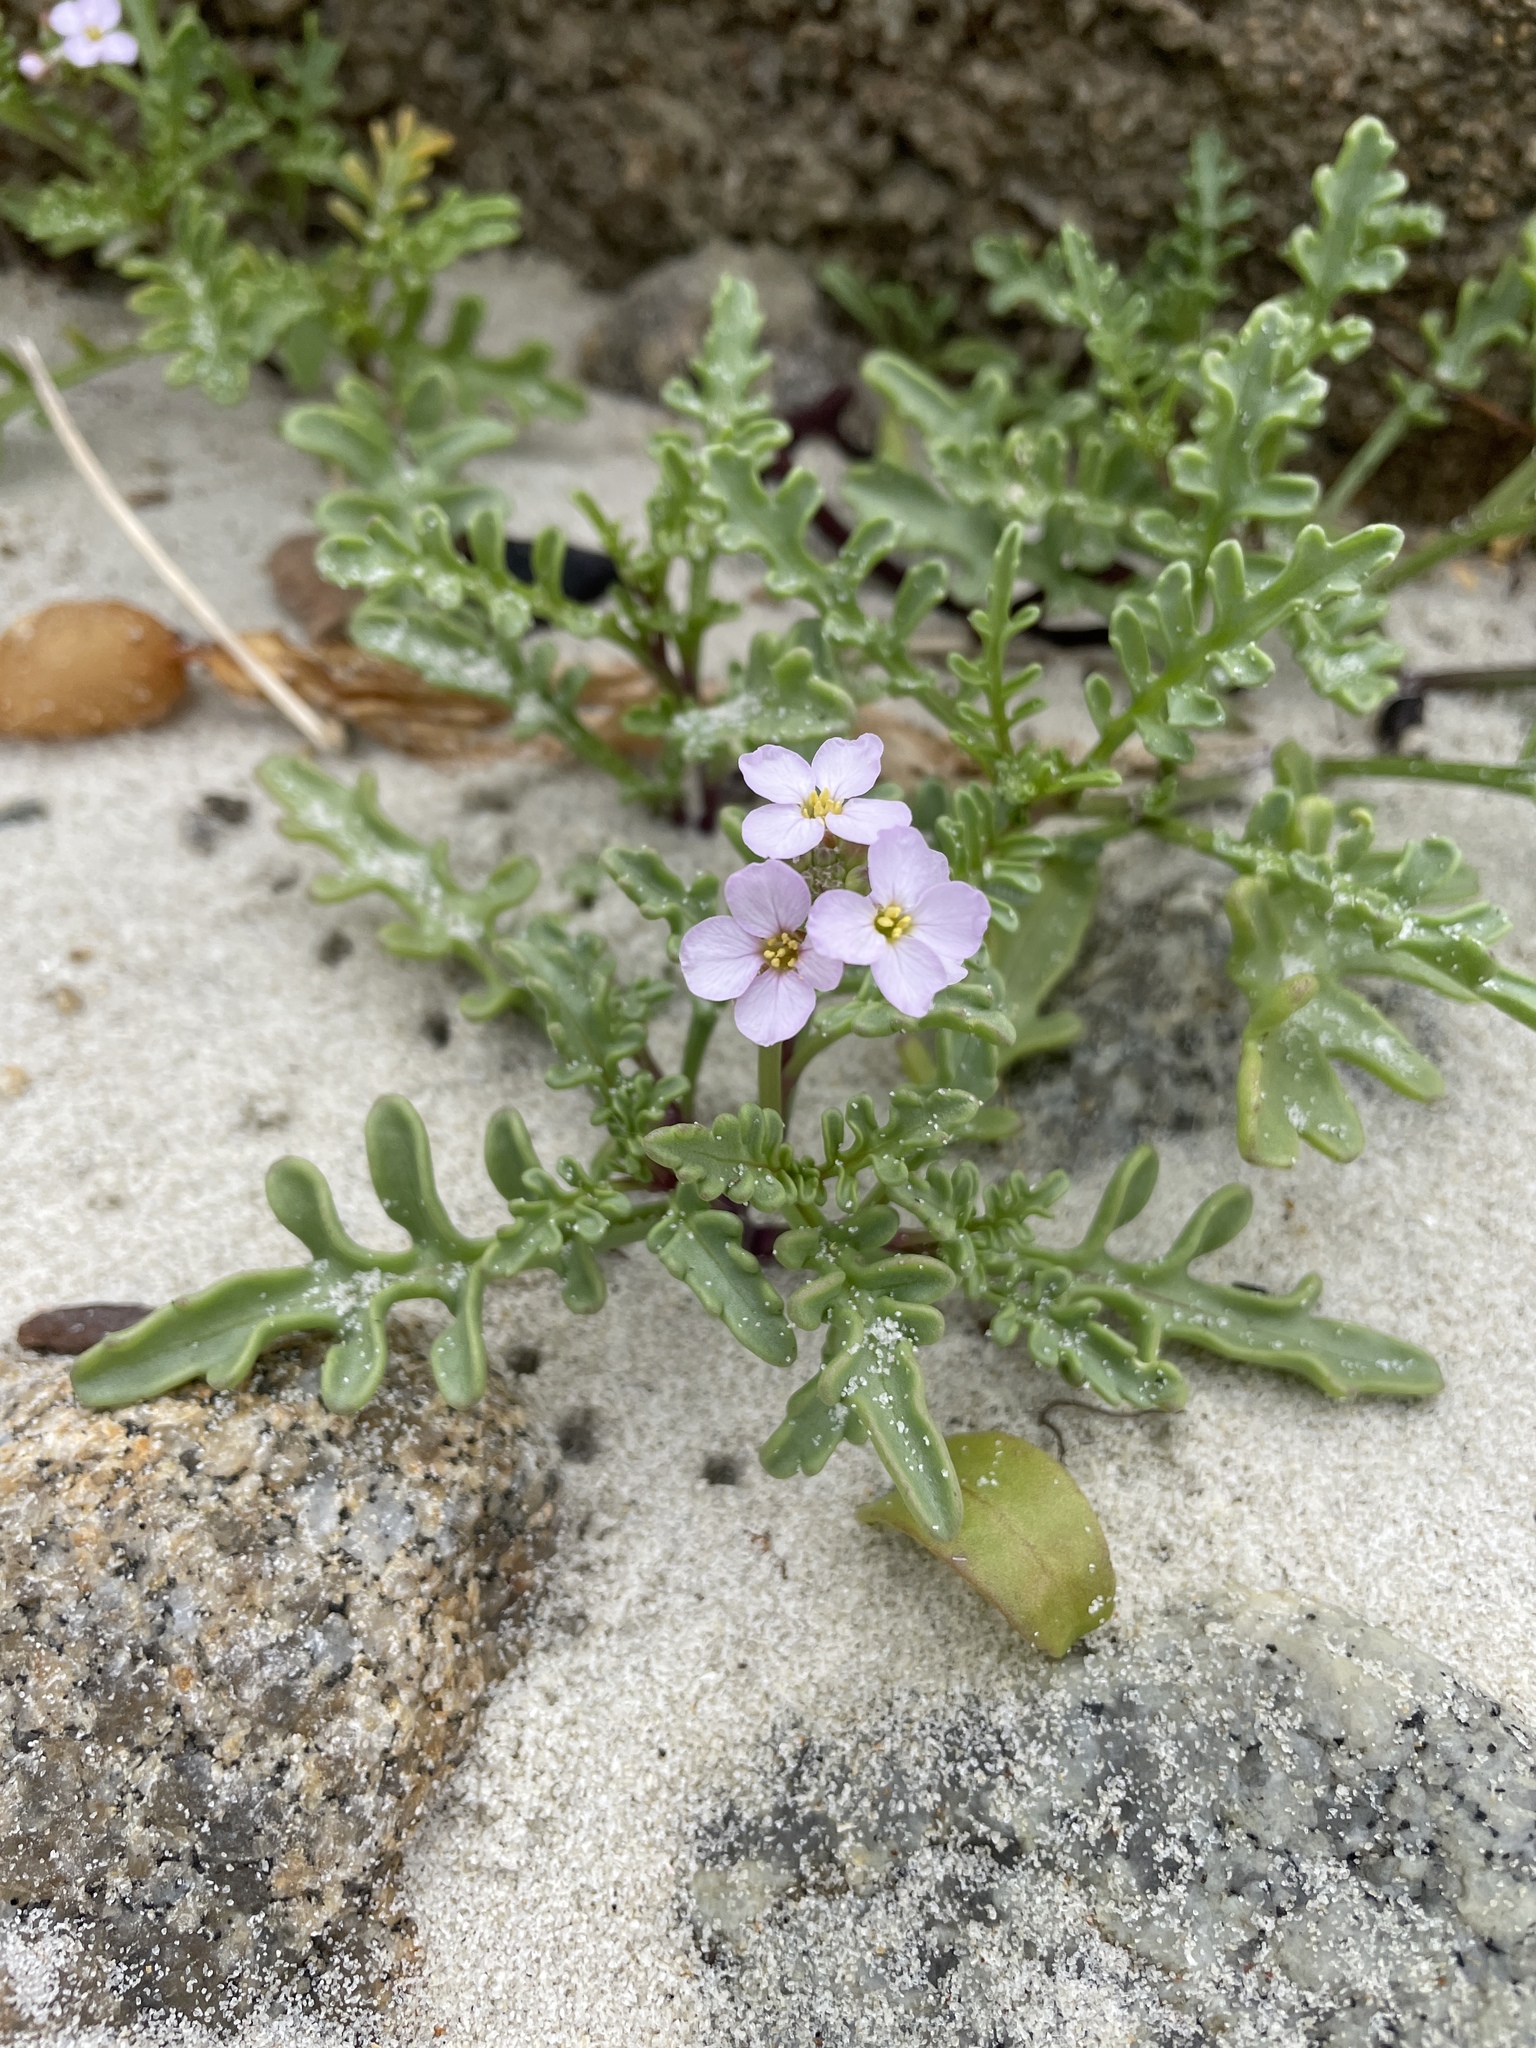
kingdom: Plantae
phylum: Tracheophyta
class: Magnoliopsida
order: Brassicales
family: Brassicaceae
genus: Cakile
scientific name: Cakile maritima
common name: Sea rocket
